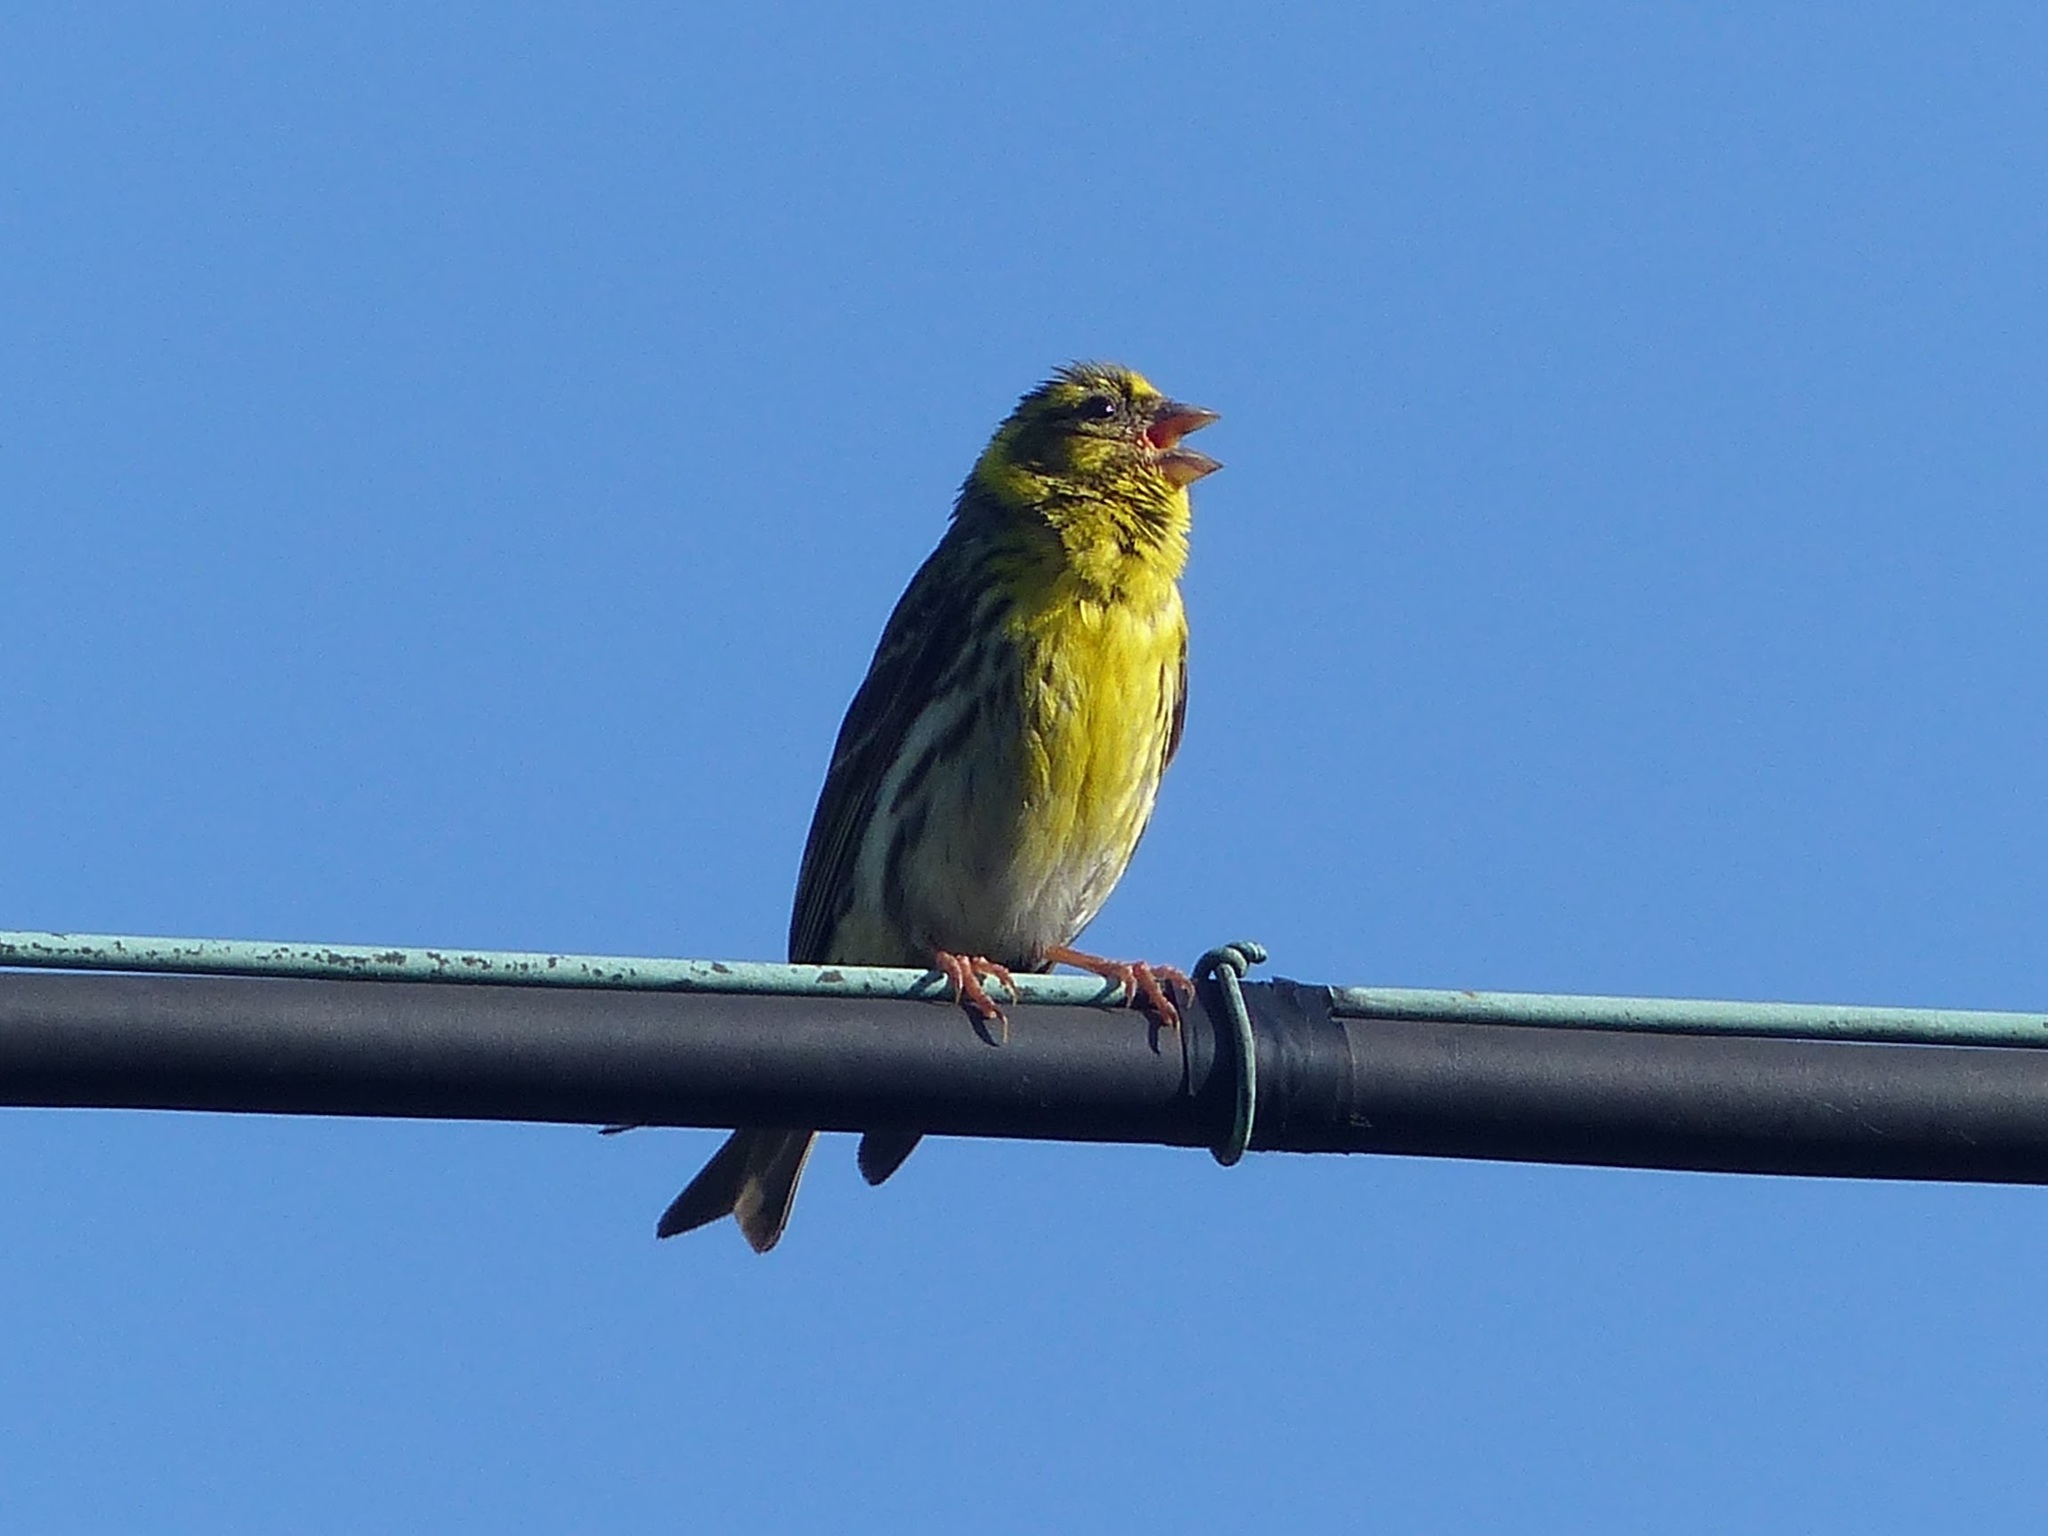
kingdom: Animalia
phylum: Chordata
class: Aves
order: Passeriformes
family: Fringillidae
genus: Serinus
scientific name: Serinus serinus
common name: European serin
